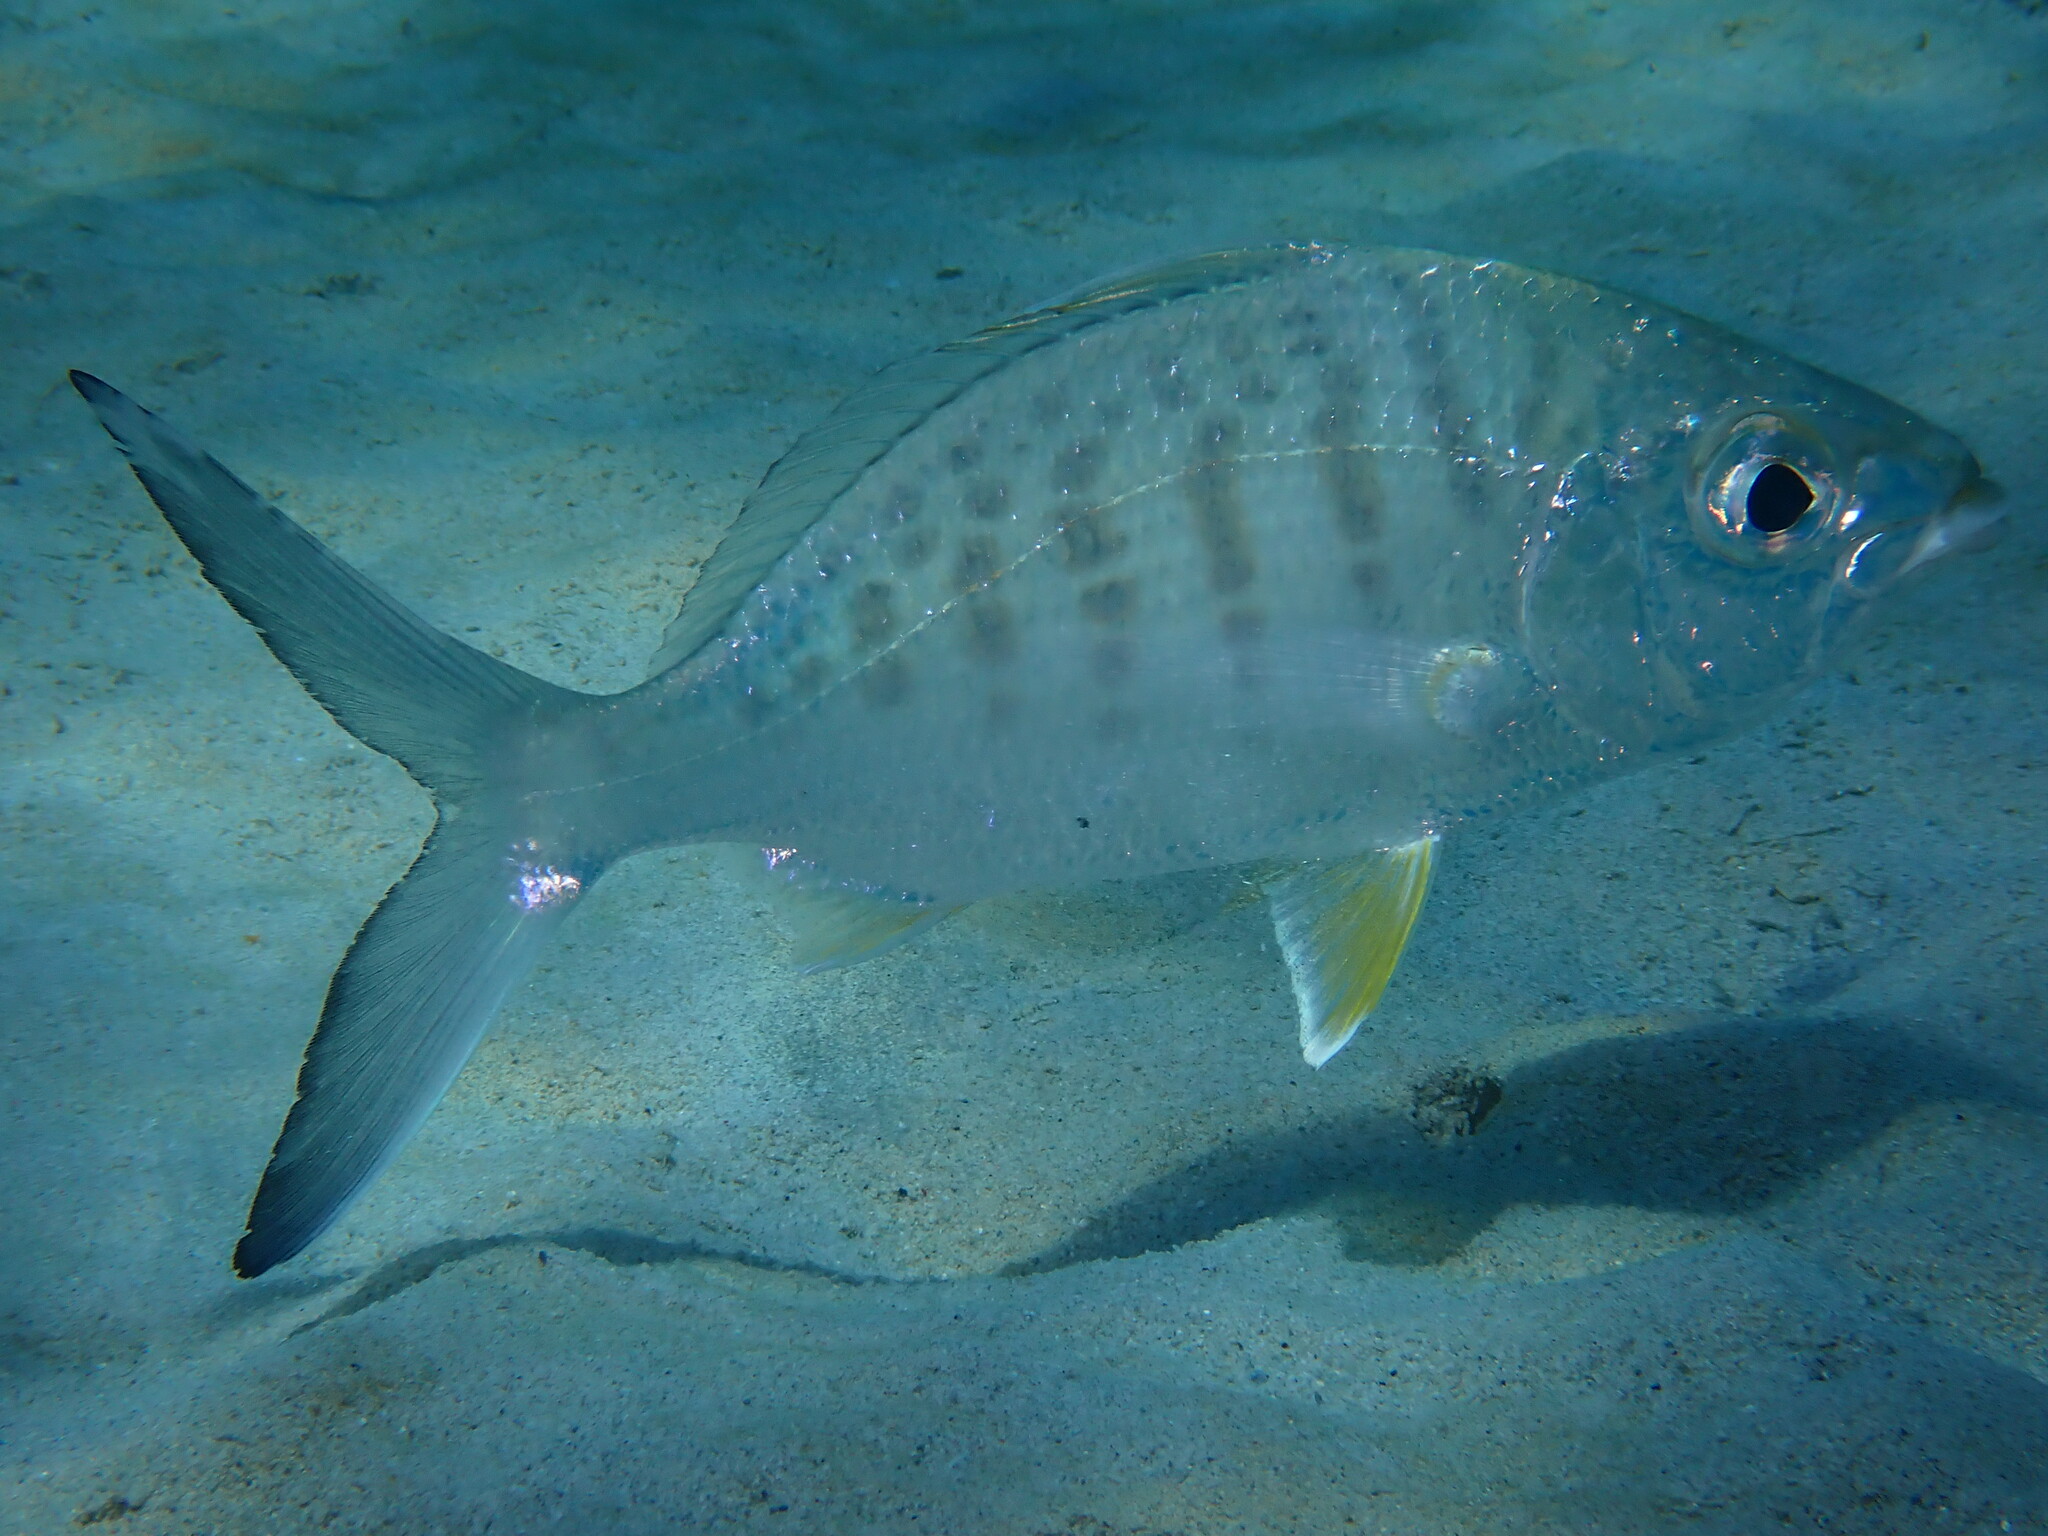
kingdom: Animalia
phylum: Chordata
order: Perciformes
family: Gerreidae
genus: Gerres
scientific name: Gerres cinereus
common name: Hedow
